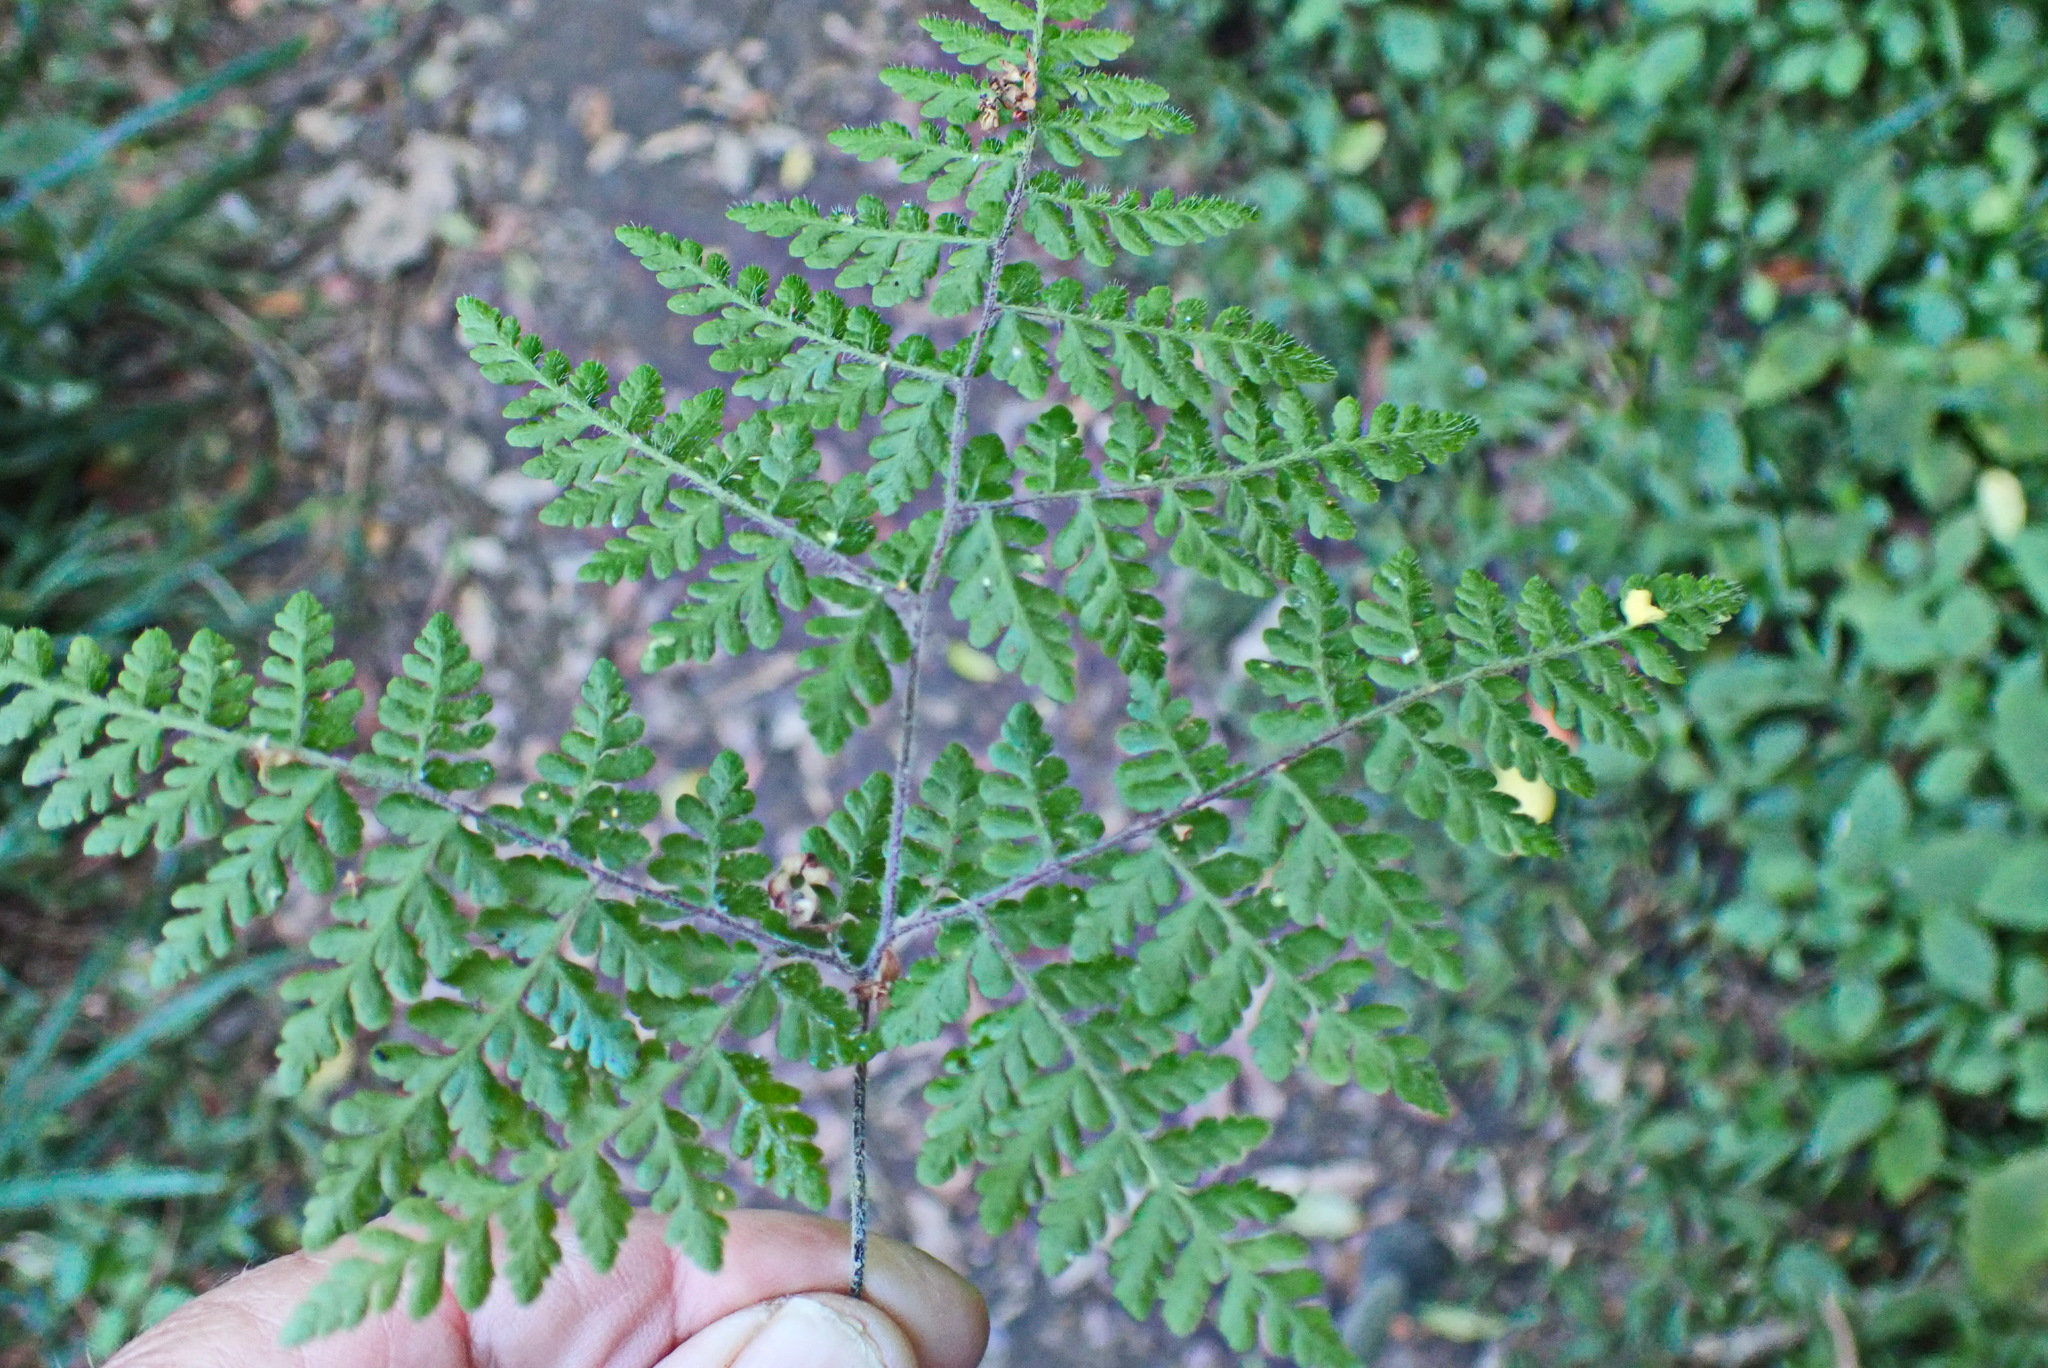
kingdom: Plantae
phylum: Tracheophyta
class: Polypodiopsida
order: Polypodiales
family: Pteridaceae
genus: Cheilanthes
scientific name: Cheilanthes bergiana
